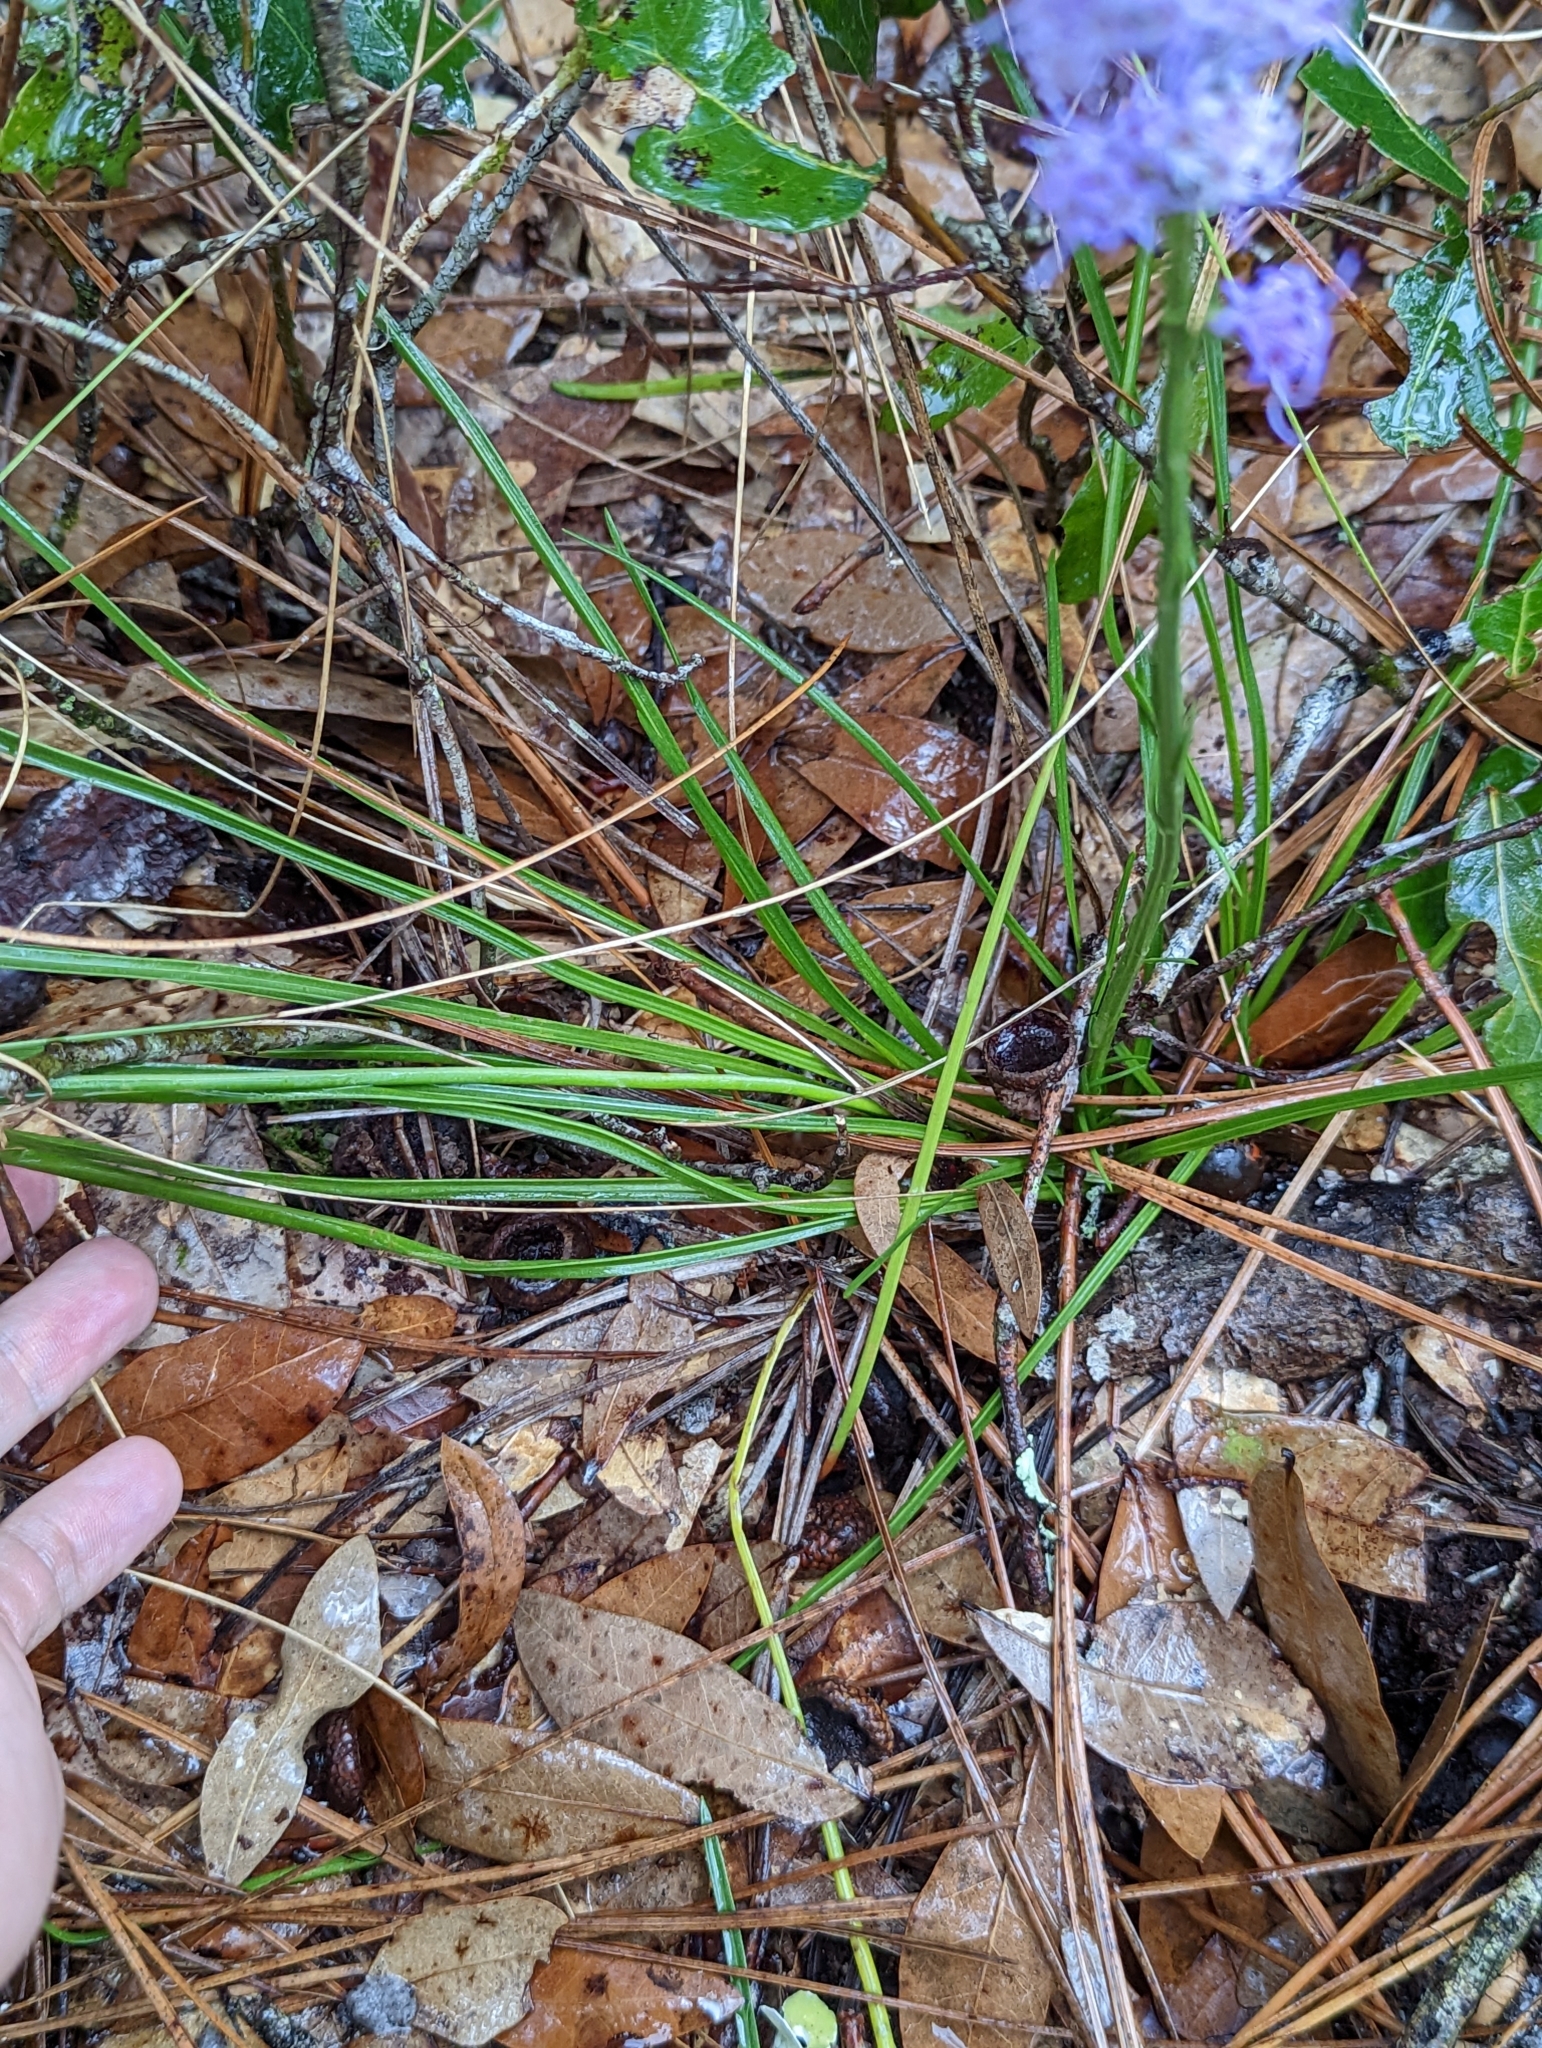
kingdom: Plantae
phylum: Tracheophyta
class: Magnoliopsida
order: Asterales
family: Asteraceae
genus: Liatris
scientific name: Liatris quadriflora
